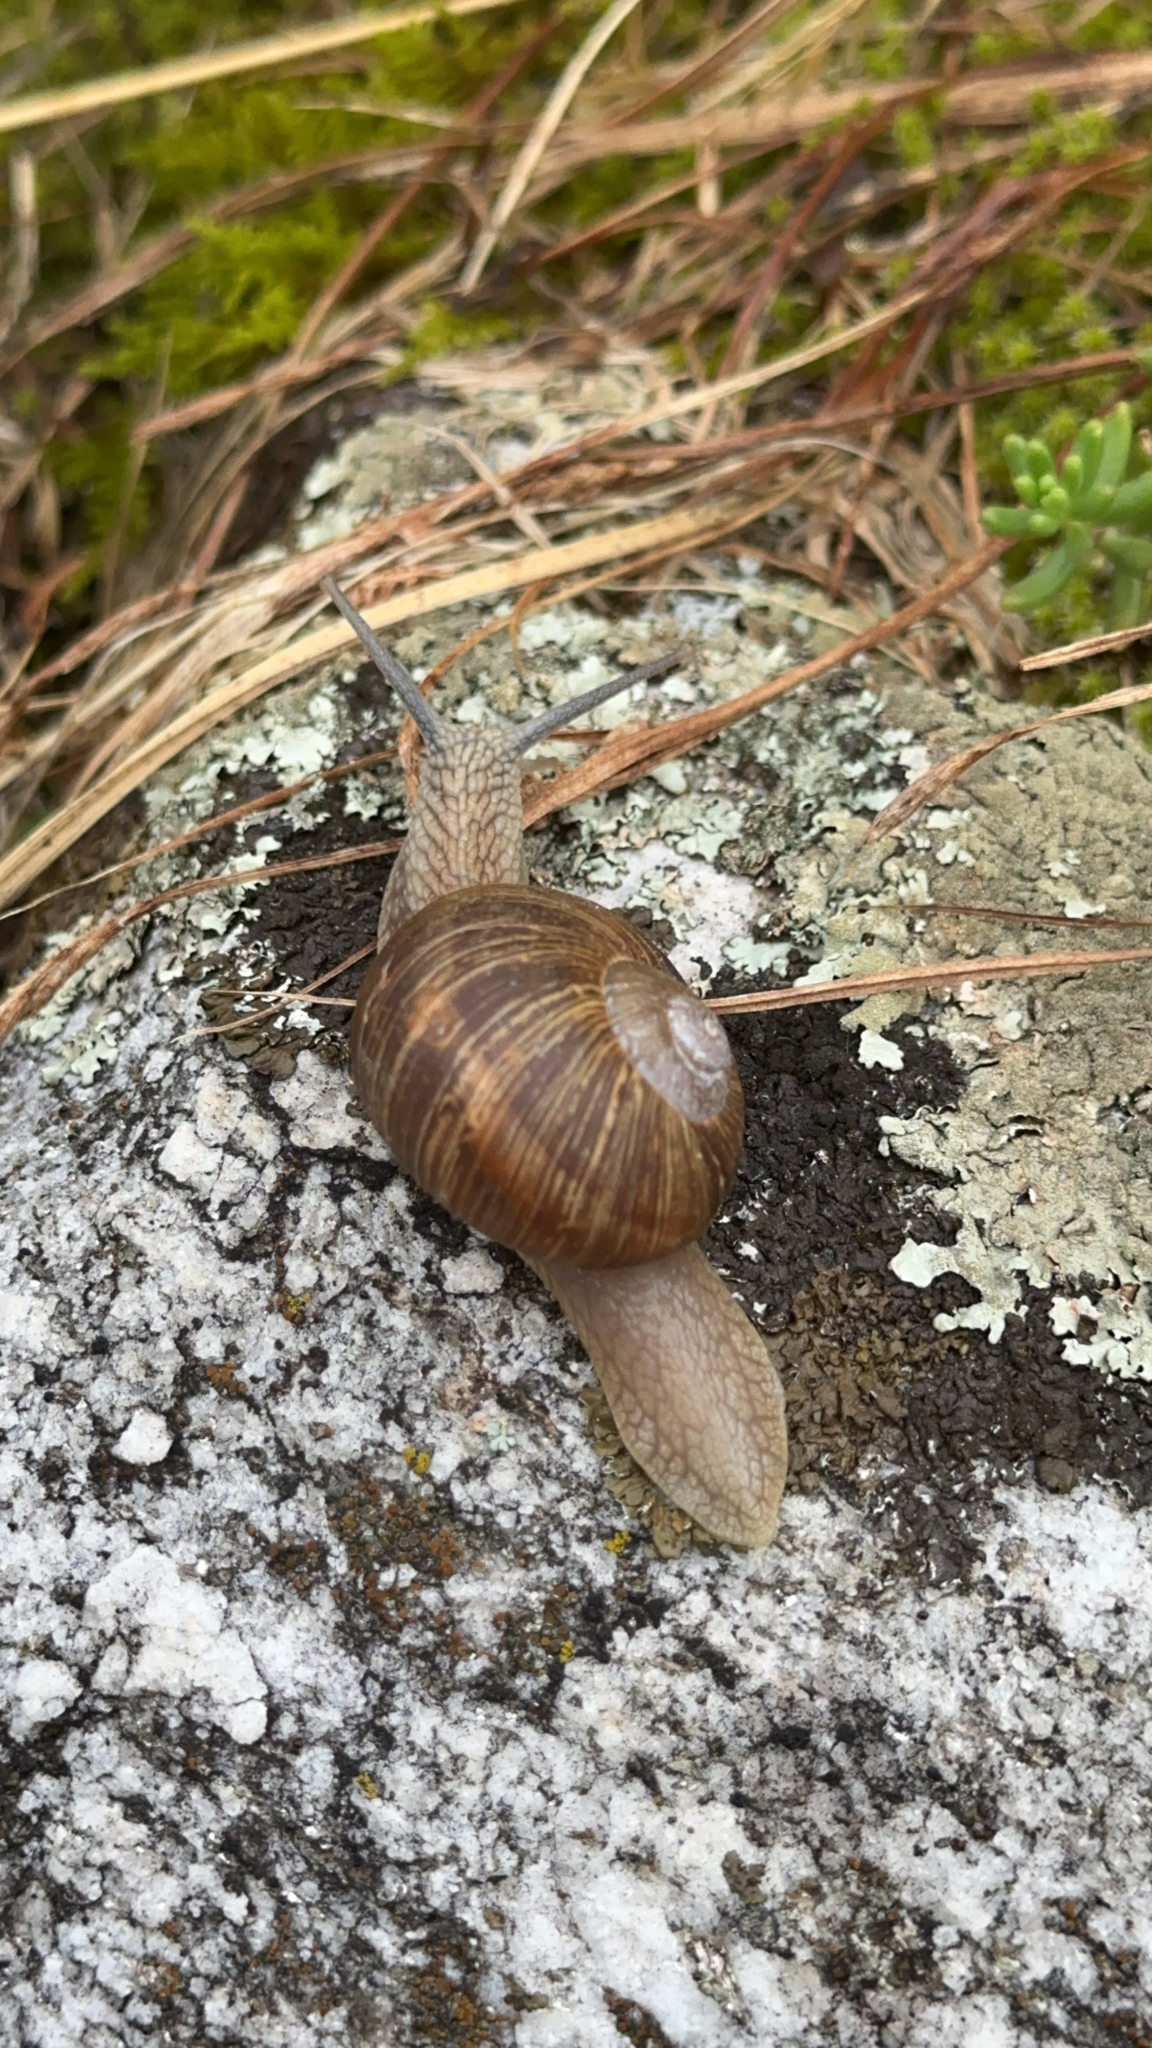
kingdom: Animalia
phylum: Mollusca
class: Gastropoda
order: Stylommatophora
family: Helicidae
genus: Helix
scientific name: Helix pomatia
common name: Roman snail
